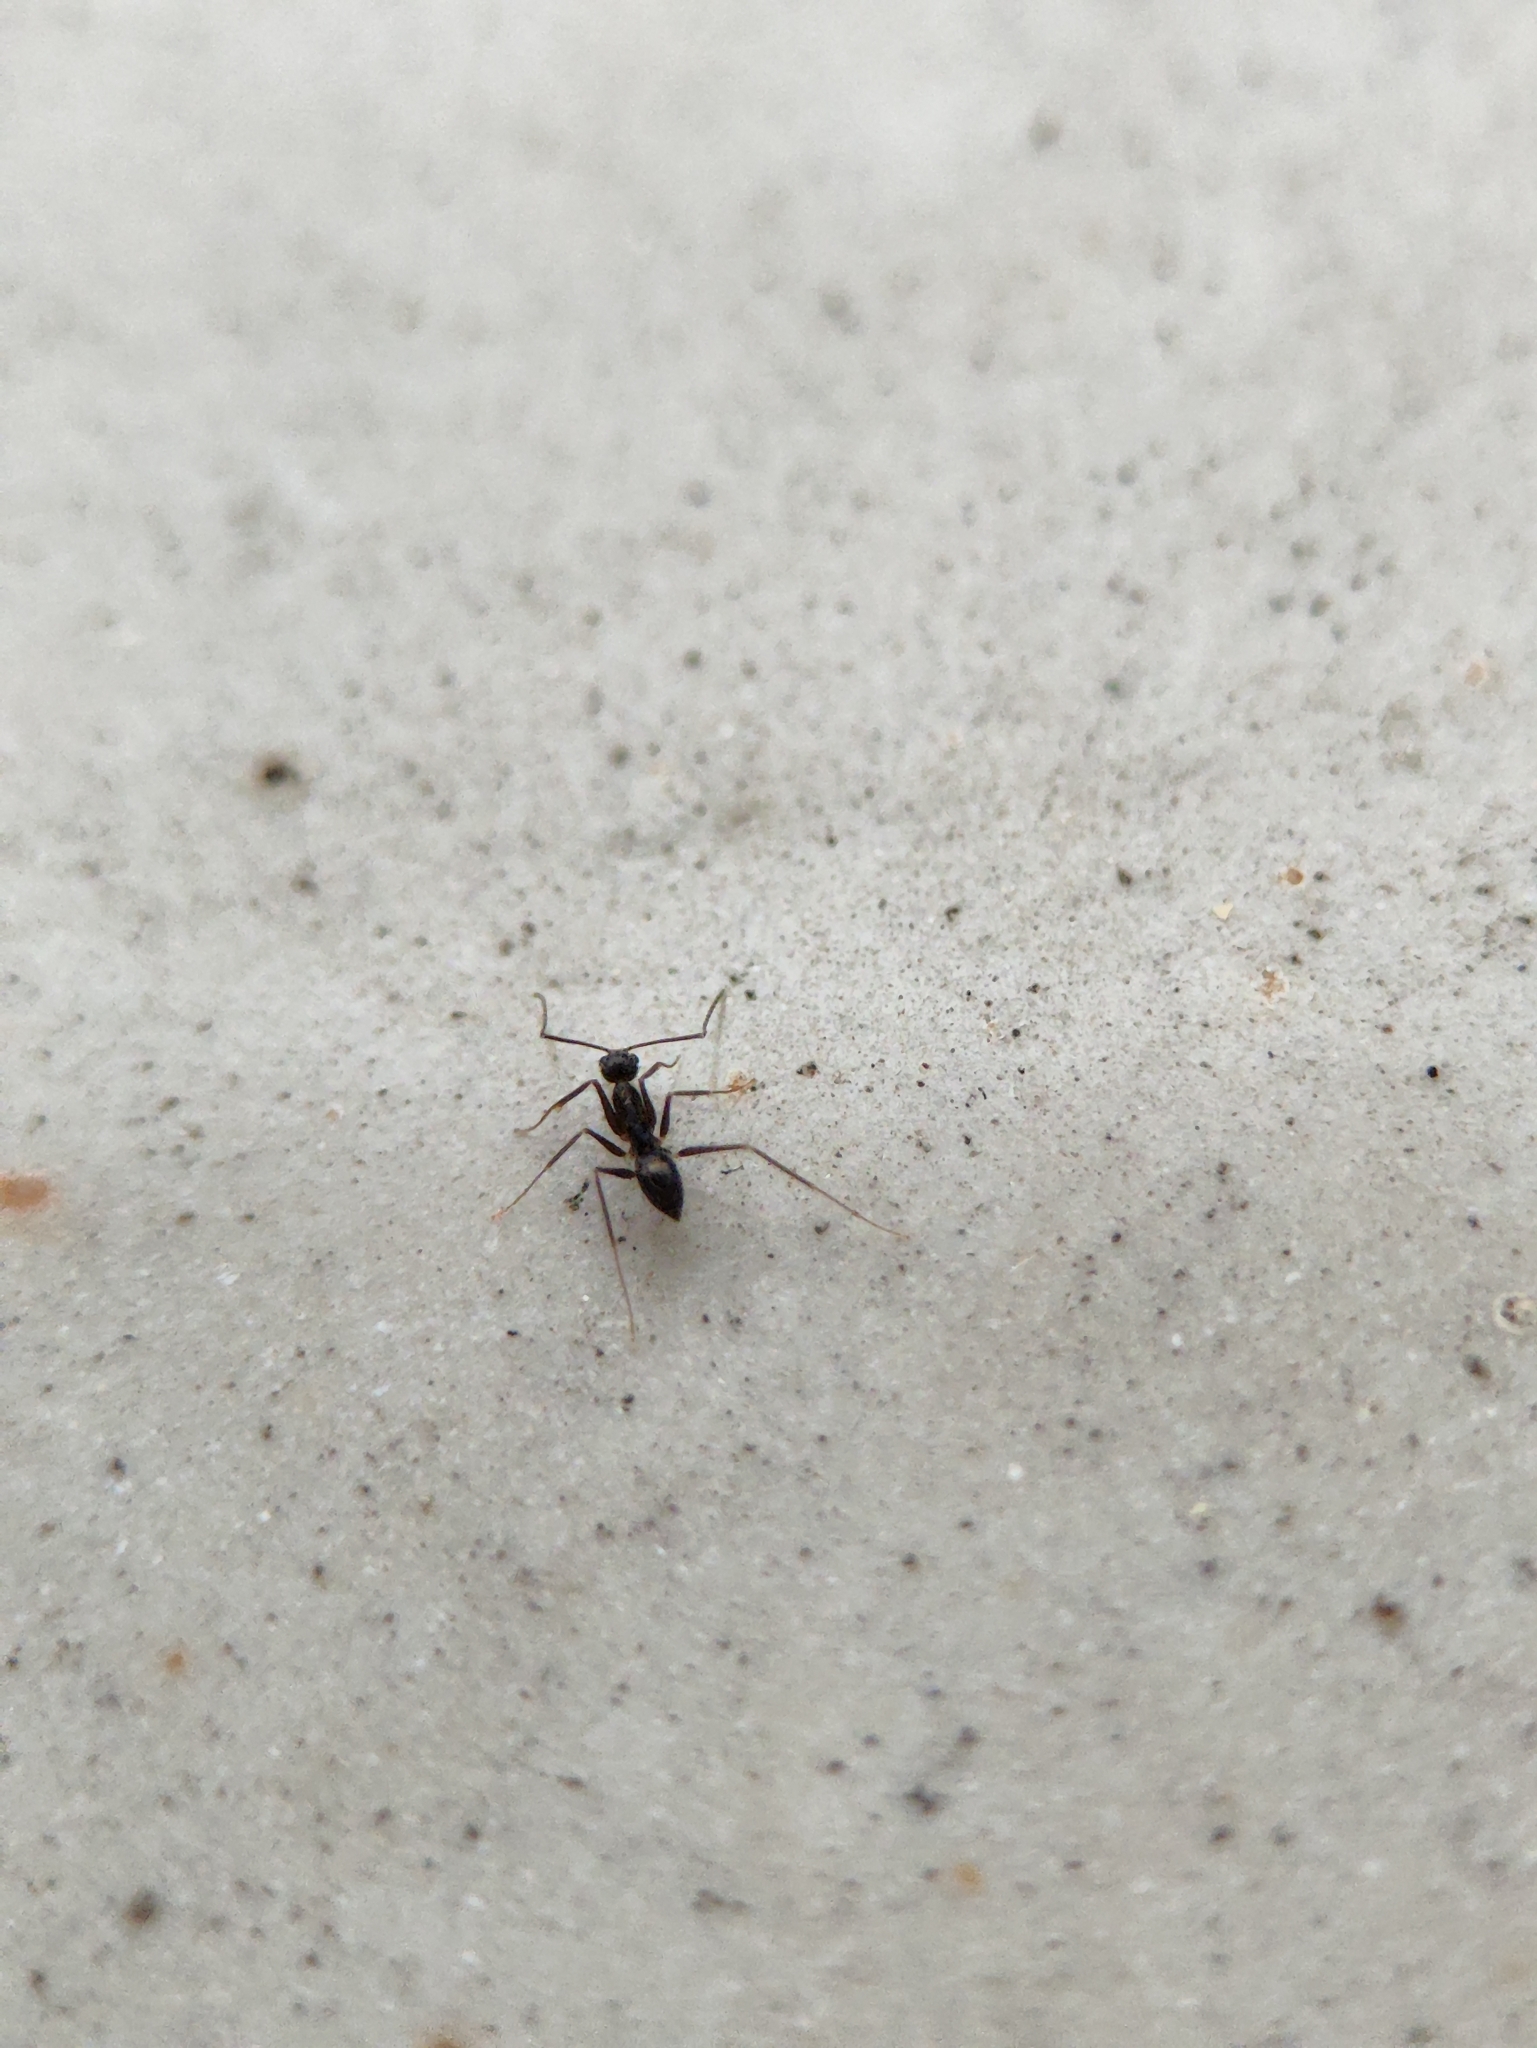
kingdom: Animalia
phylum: Arthropoda
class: Insecta
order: Hymenoptera
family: Formicidae
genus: Paratrechina
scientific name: Paratrechina longicornis
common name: Longhorned crazy ant
